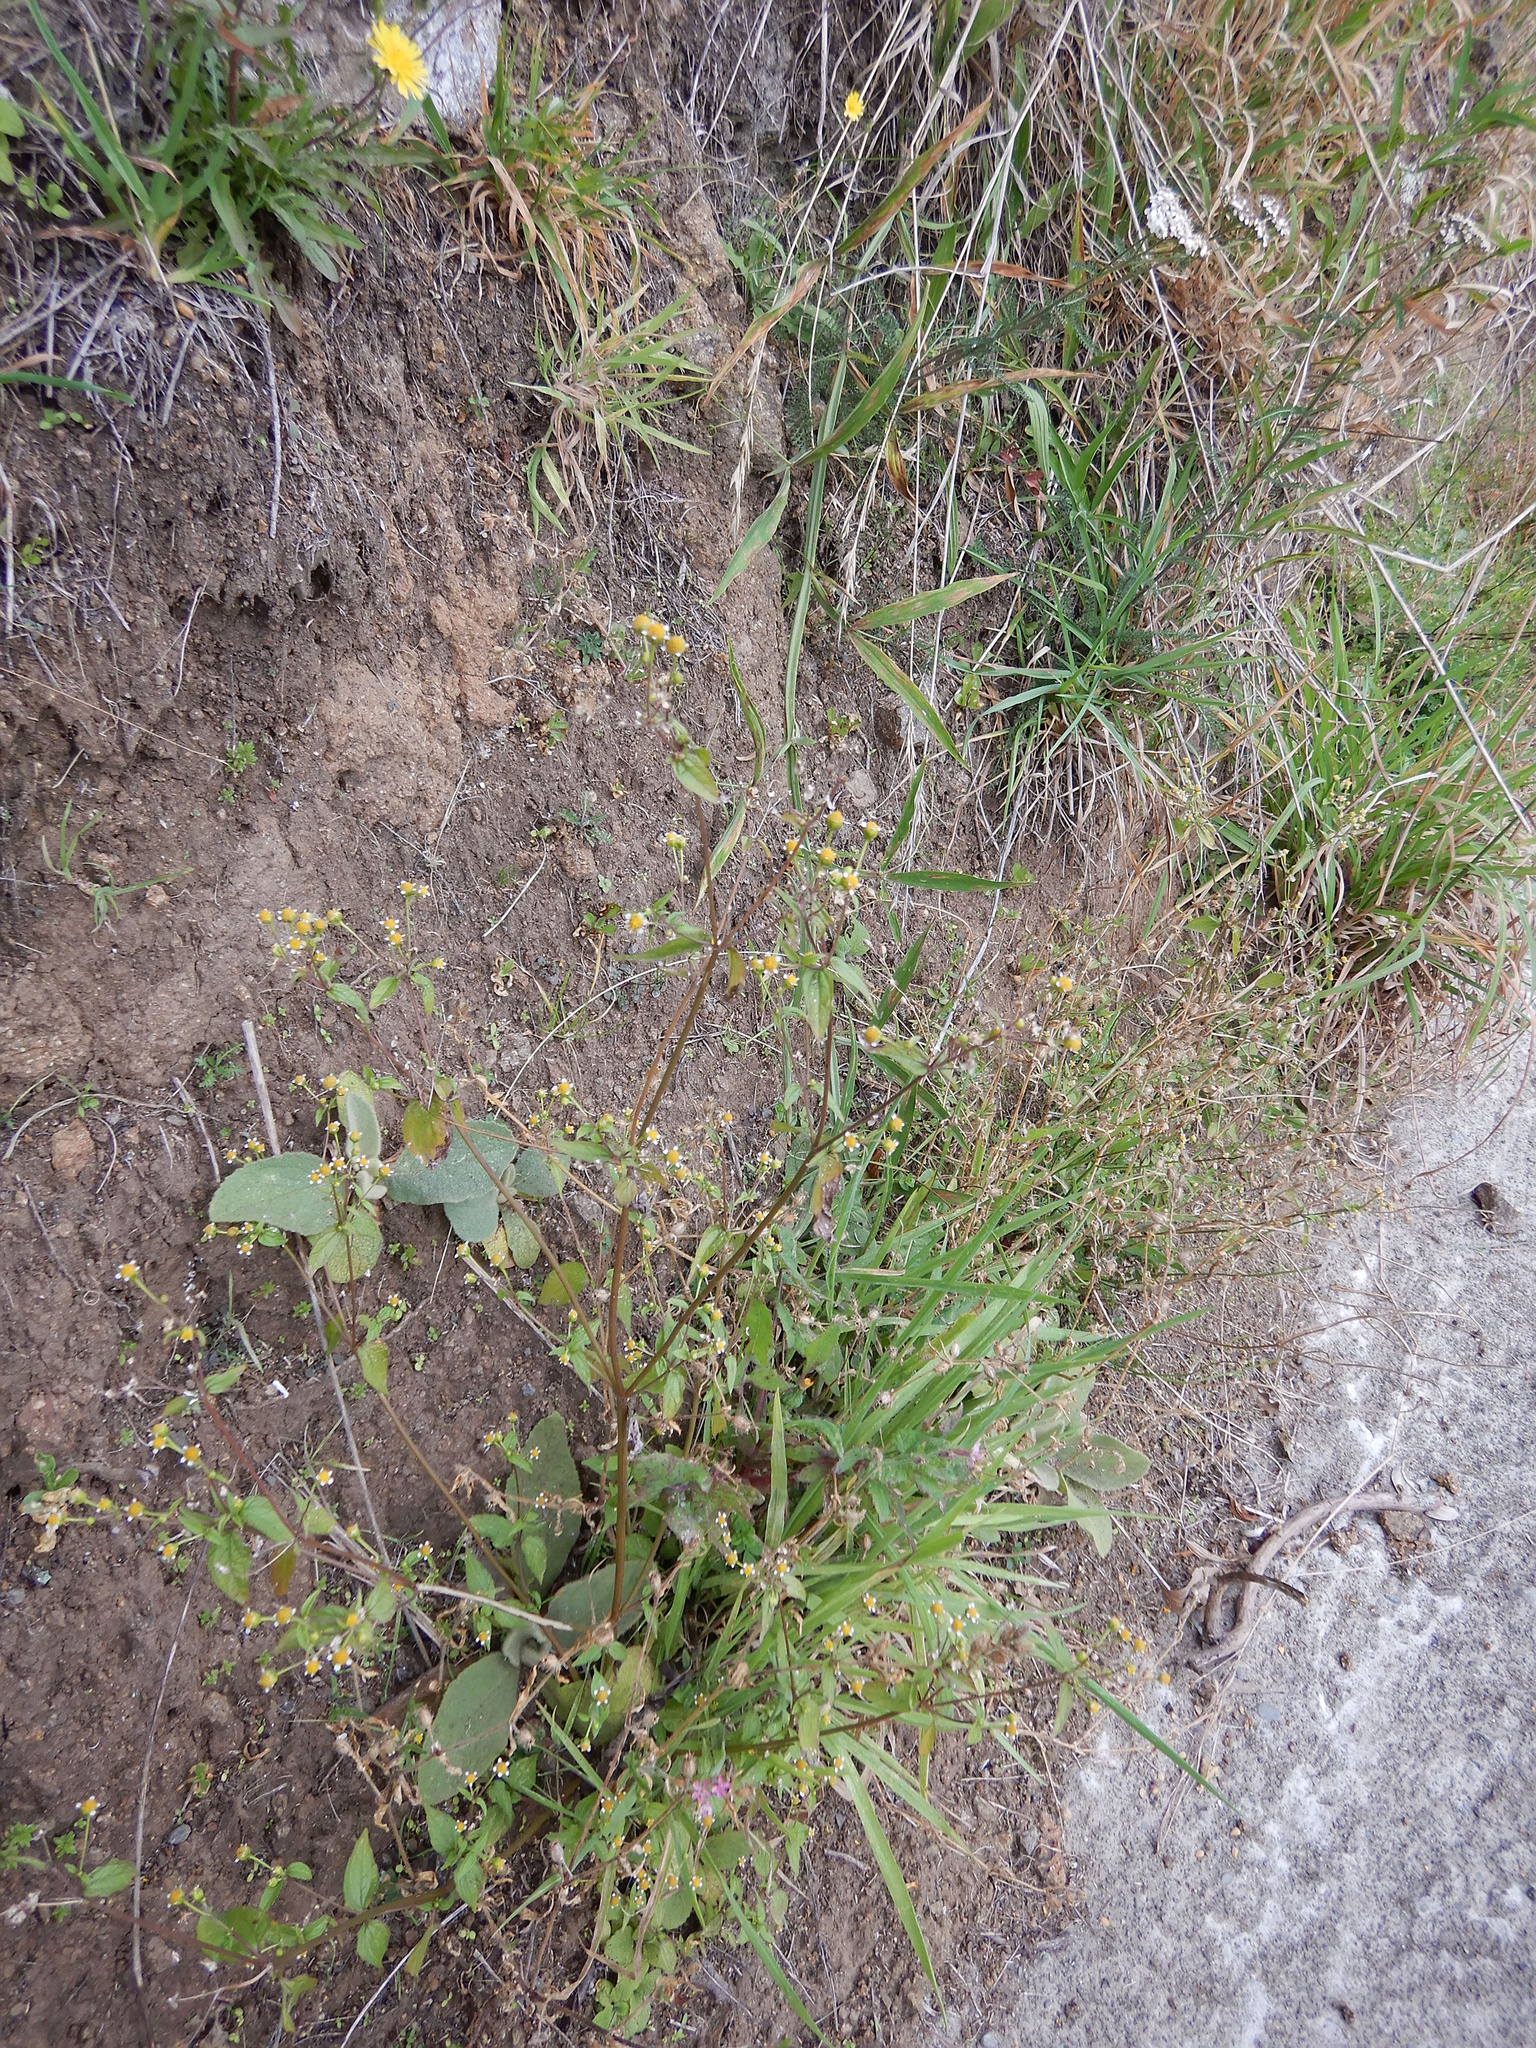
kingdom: Plantae
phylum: Tracheophyta
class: Magnoliopsida
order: Asterales
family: Asteraceae
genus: Galinsoga
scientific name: Galinsoga parviflora
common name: Gallant soldier
